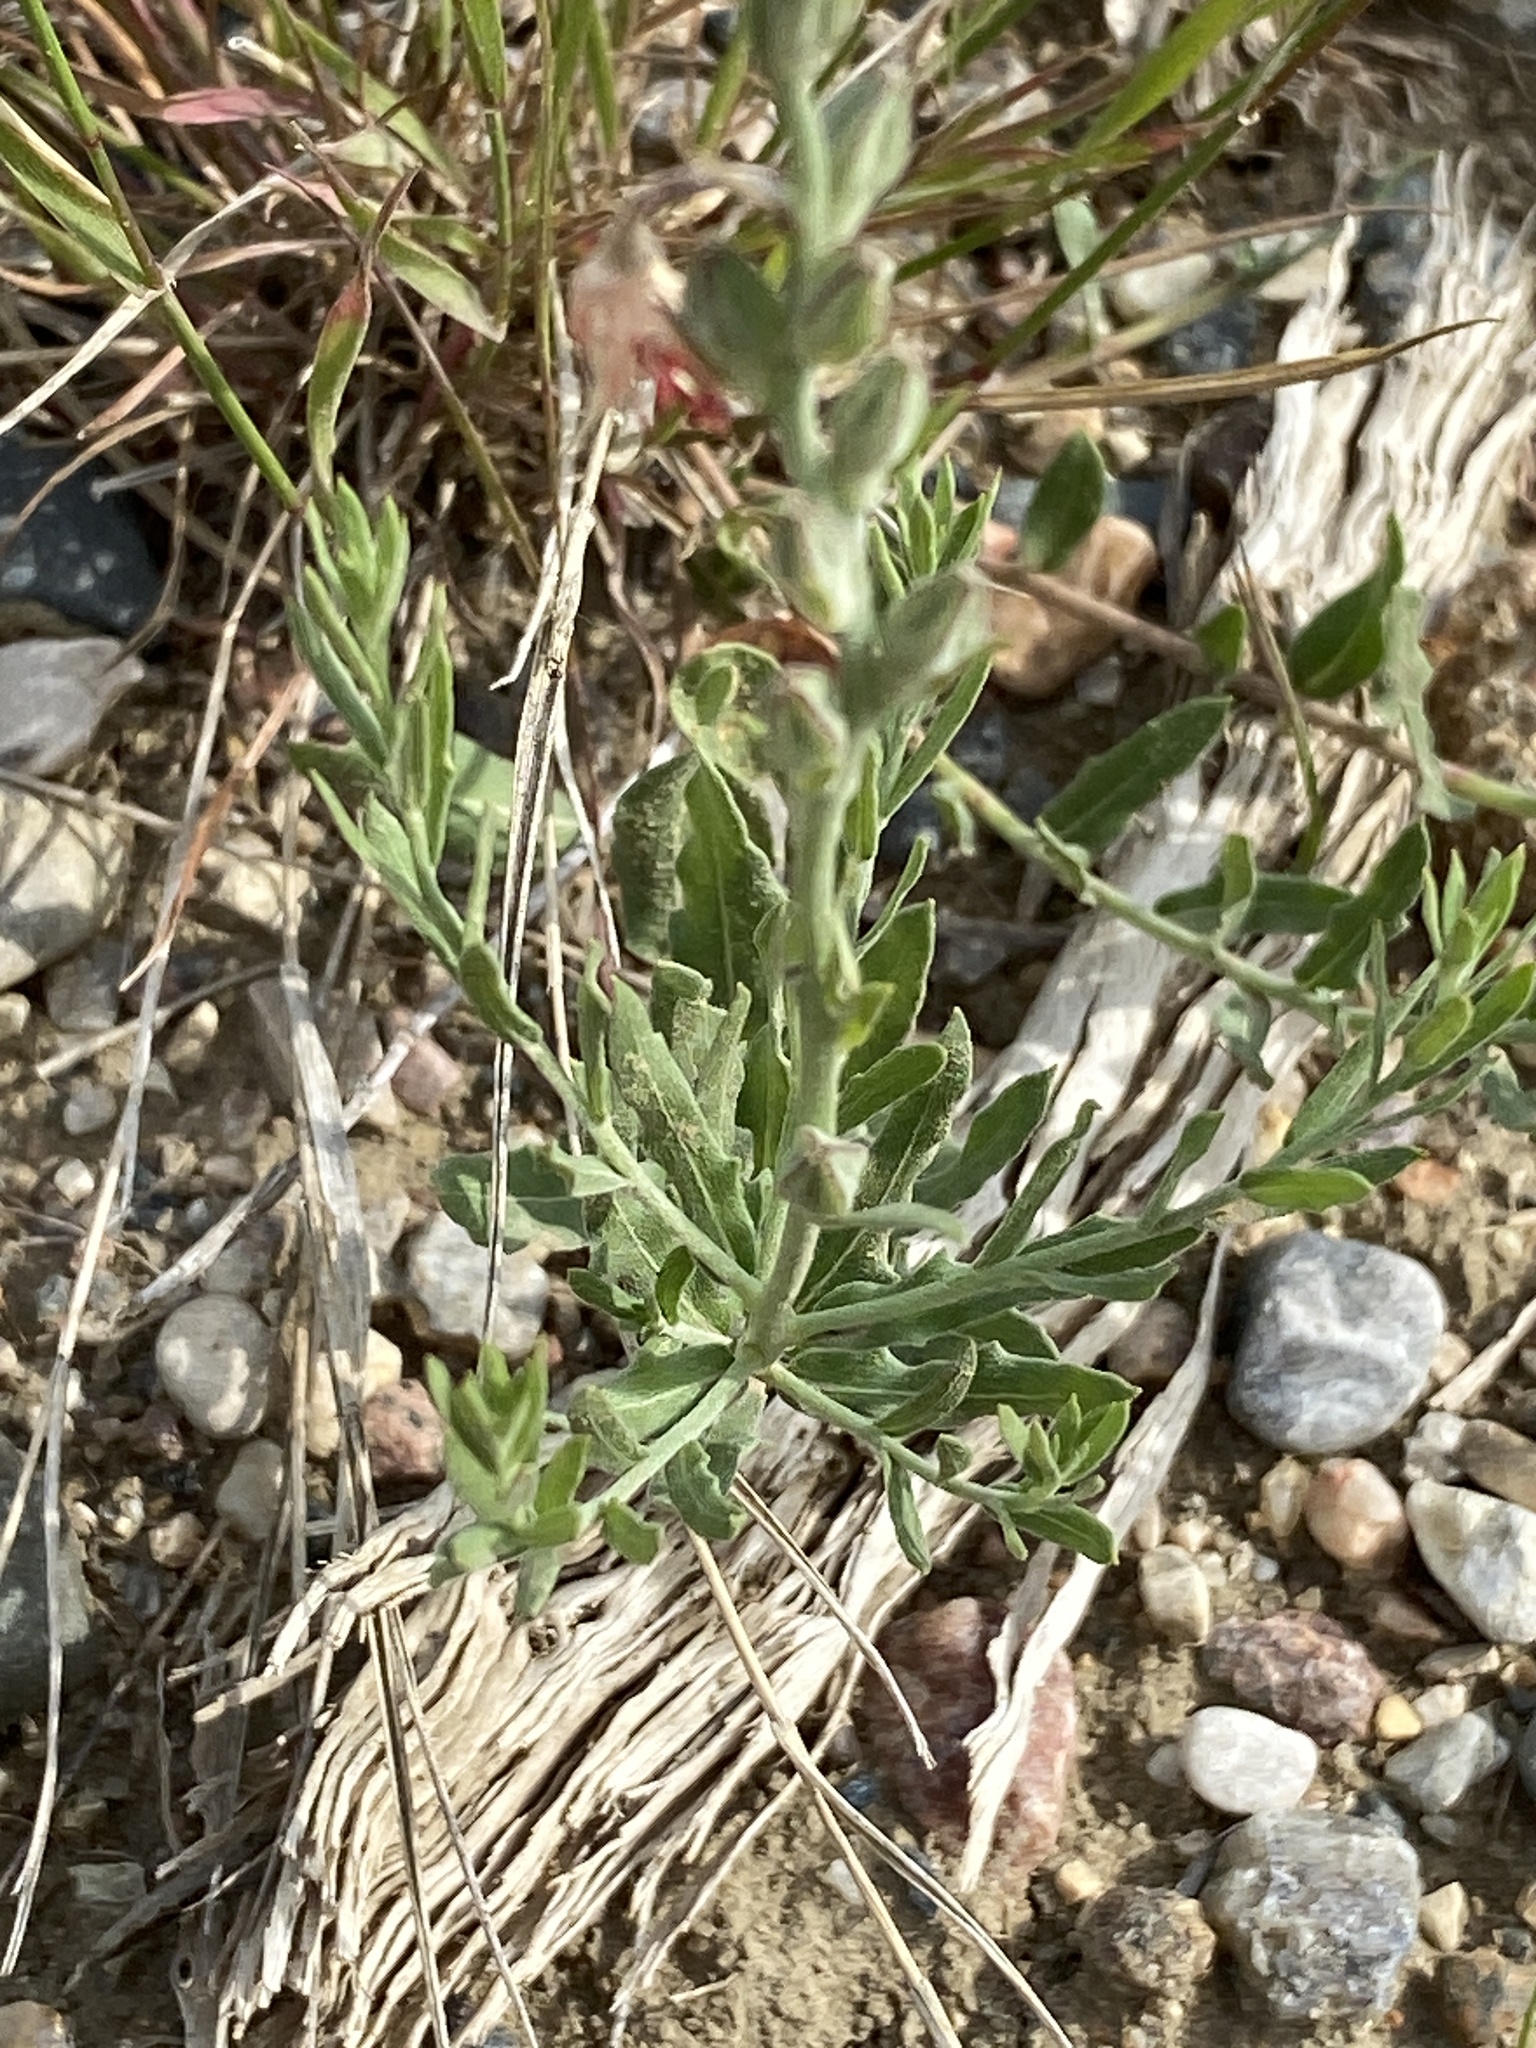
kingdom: Plantae
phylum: Tracheophyta
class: Magnoliopsida
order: Myrtales
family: Onagraceae
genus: Oenothera
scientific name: Oenothera suffrutescens
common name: Scarlet beeblossom
